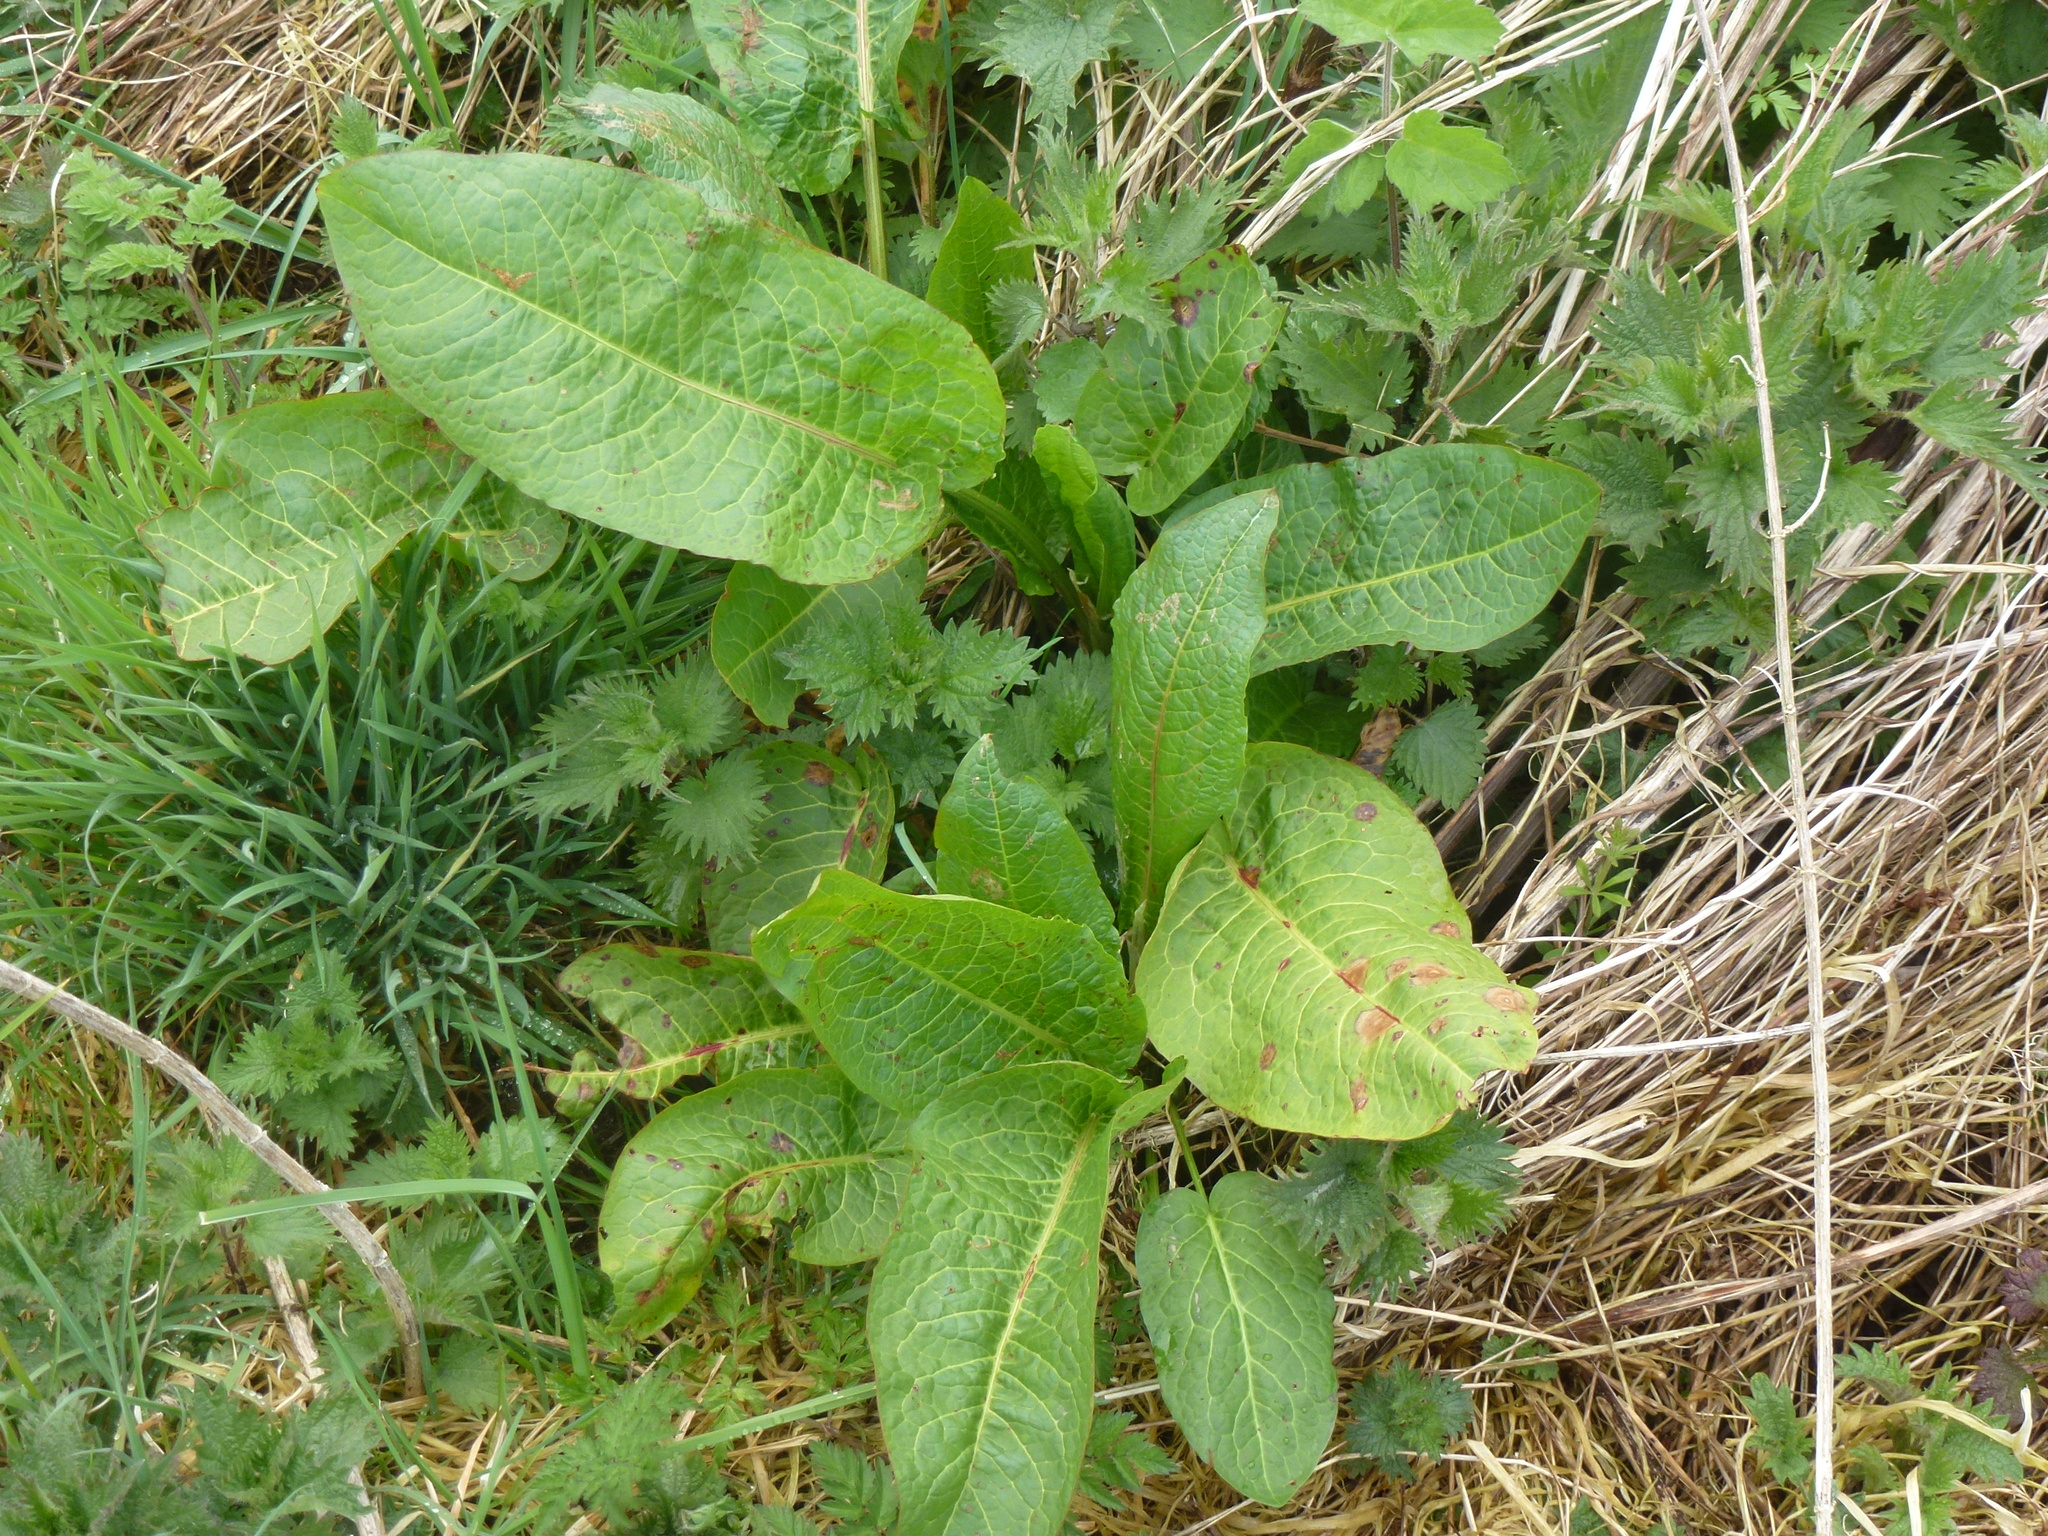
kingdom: Plantae
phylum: Tracheophyta
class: Magnoliopsida
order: Caryophyllales
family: Polygonaceae
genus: Rumex
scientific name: Rumex obtusifolius
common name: Bitter dock
